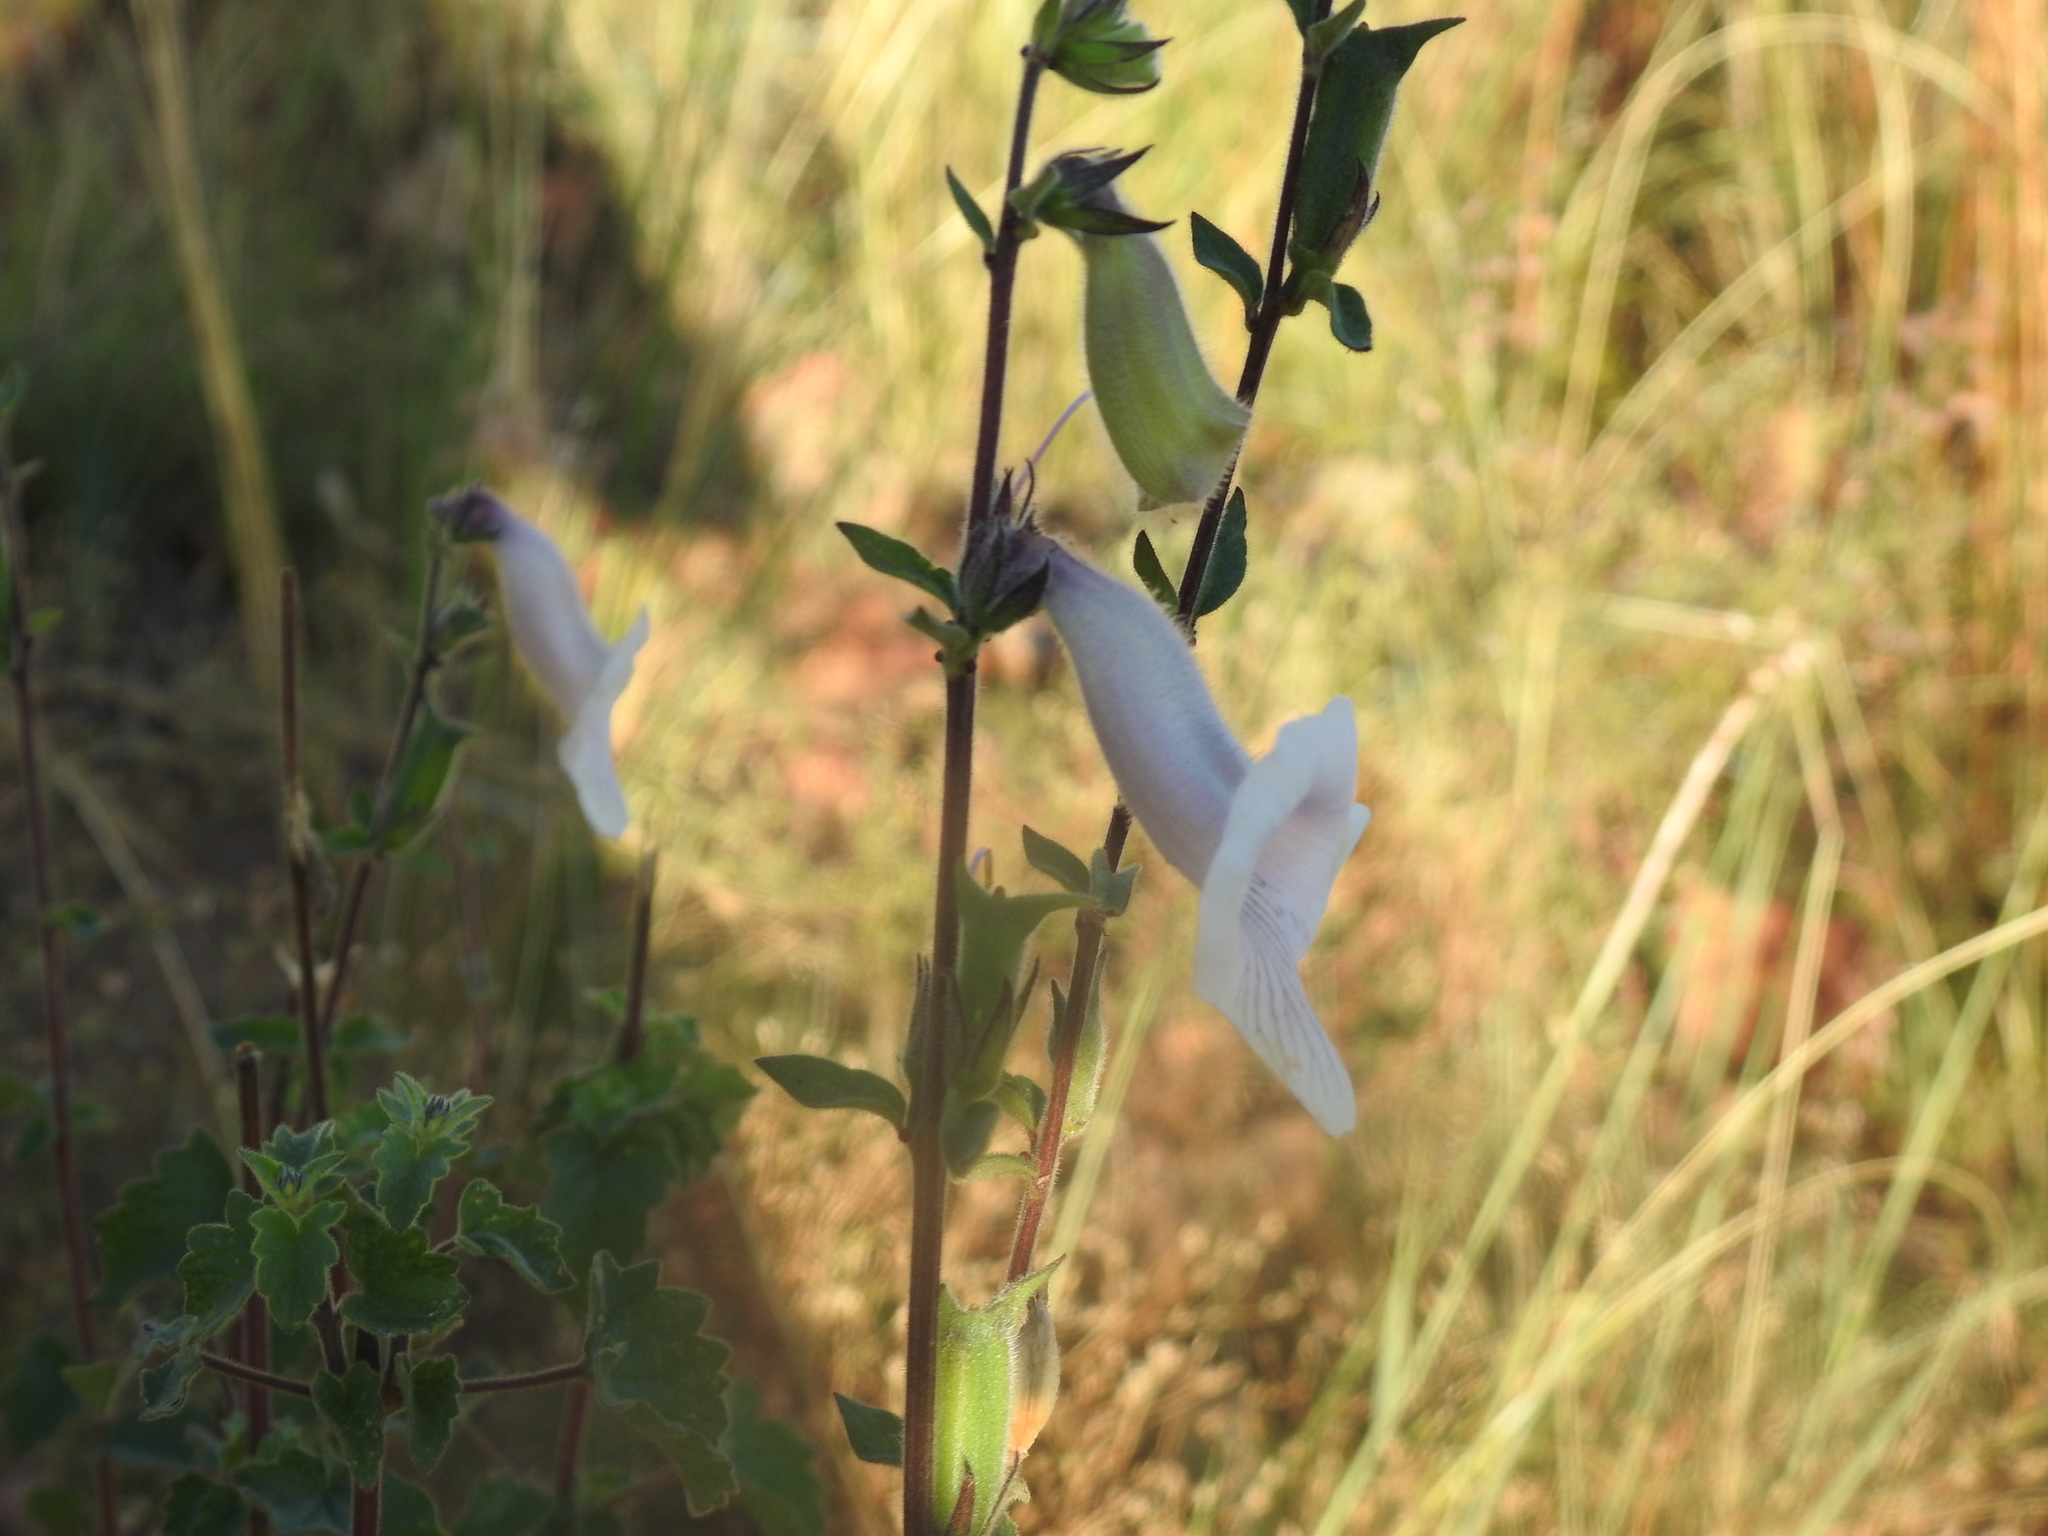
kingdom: Plantae
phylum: Tracheophyta
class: Magnoliopsida
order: Lamiales
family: Pedaliaceae
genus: Sesamum
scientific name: Sesamum trilobum
